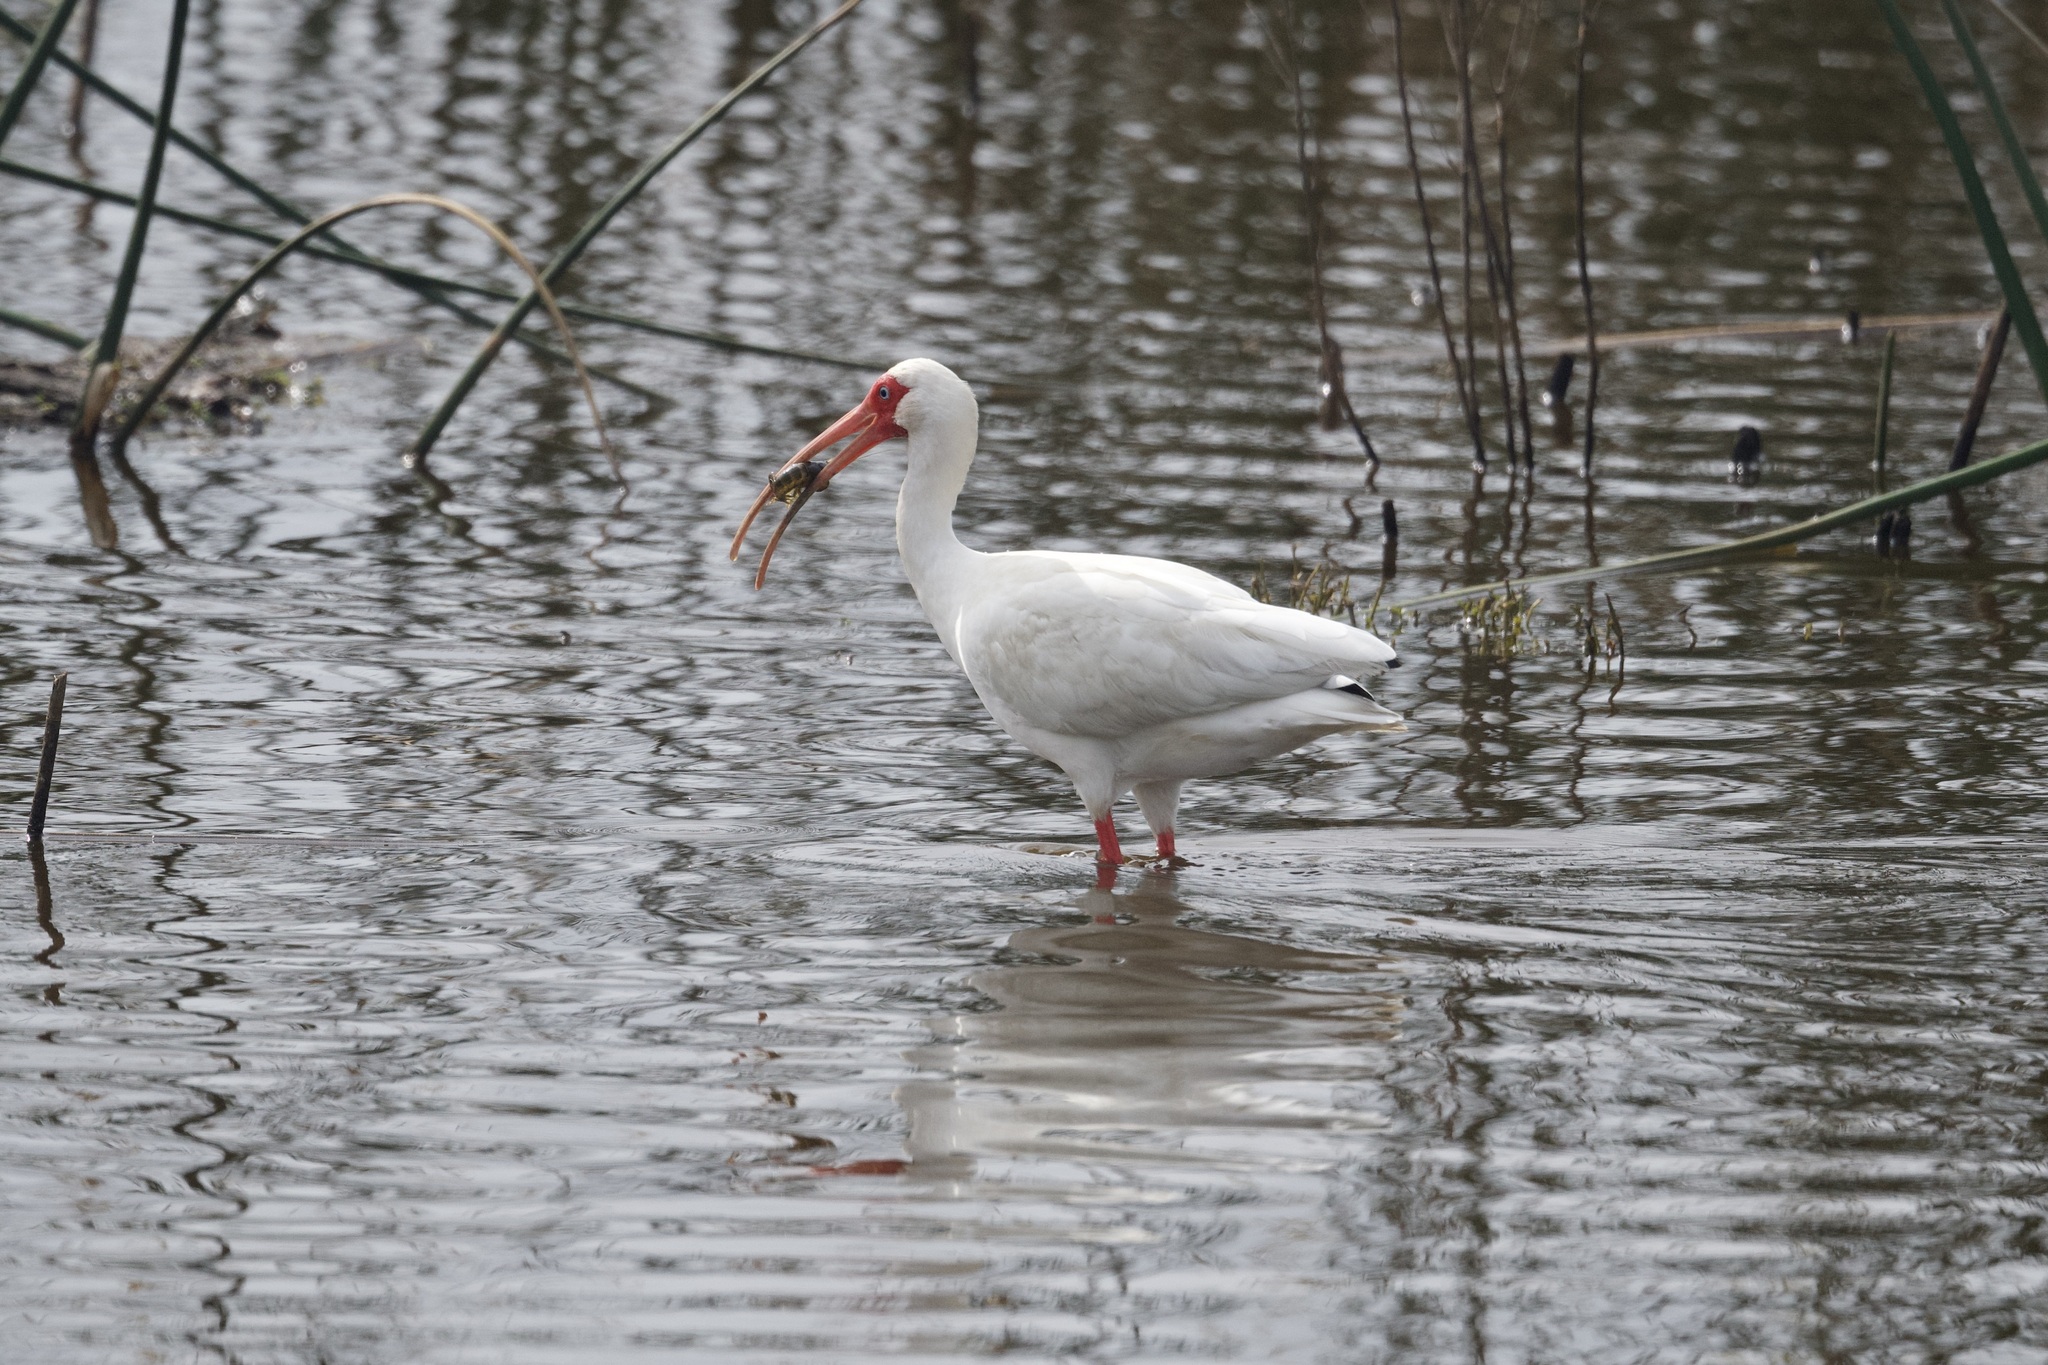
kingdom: Animalia
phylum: Chordata
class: Aves
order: Pelecaniformes
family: Threskiornithidae
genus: Eudocimus
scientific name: Eudocimus albus
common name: White ibis
